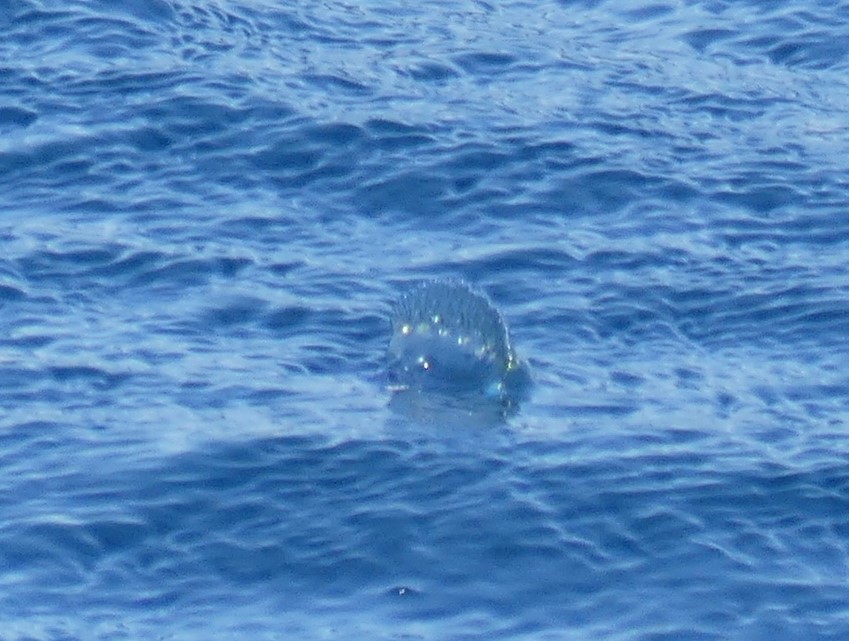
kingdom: Animalia
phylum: Cnidaria
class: Hydrozoa
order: Siphonophorae
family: Physaliidae
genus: Physalia
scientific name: Physalia physalis
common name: Portuguese man-of-war
